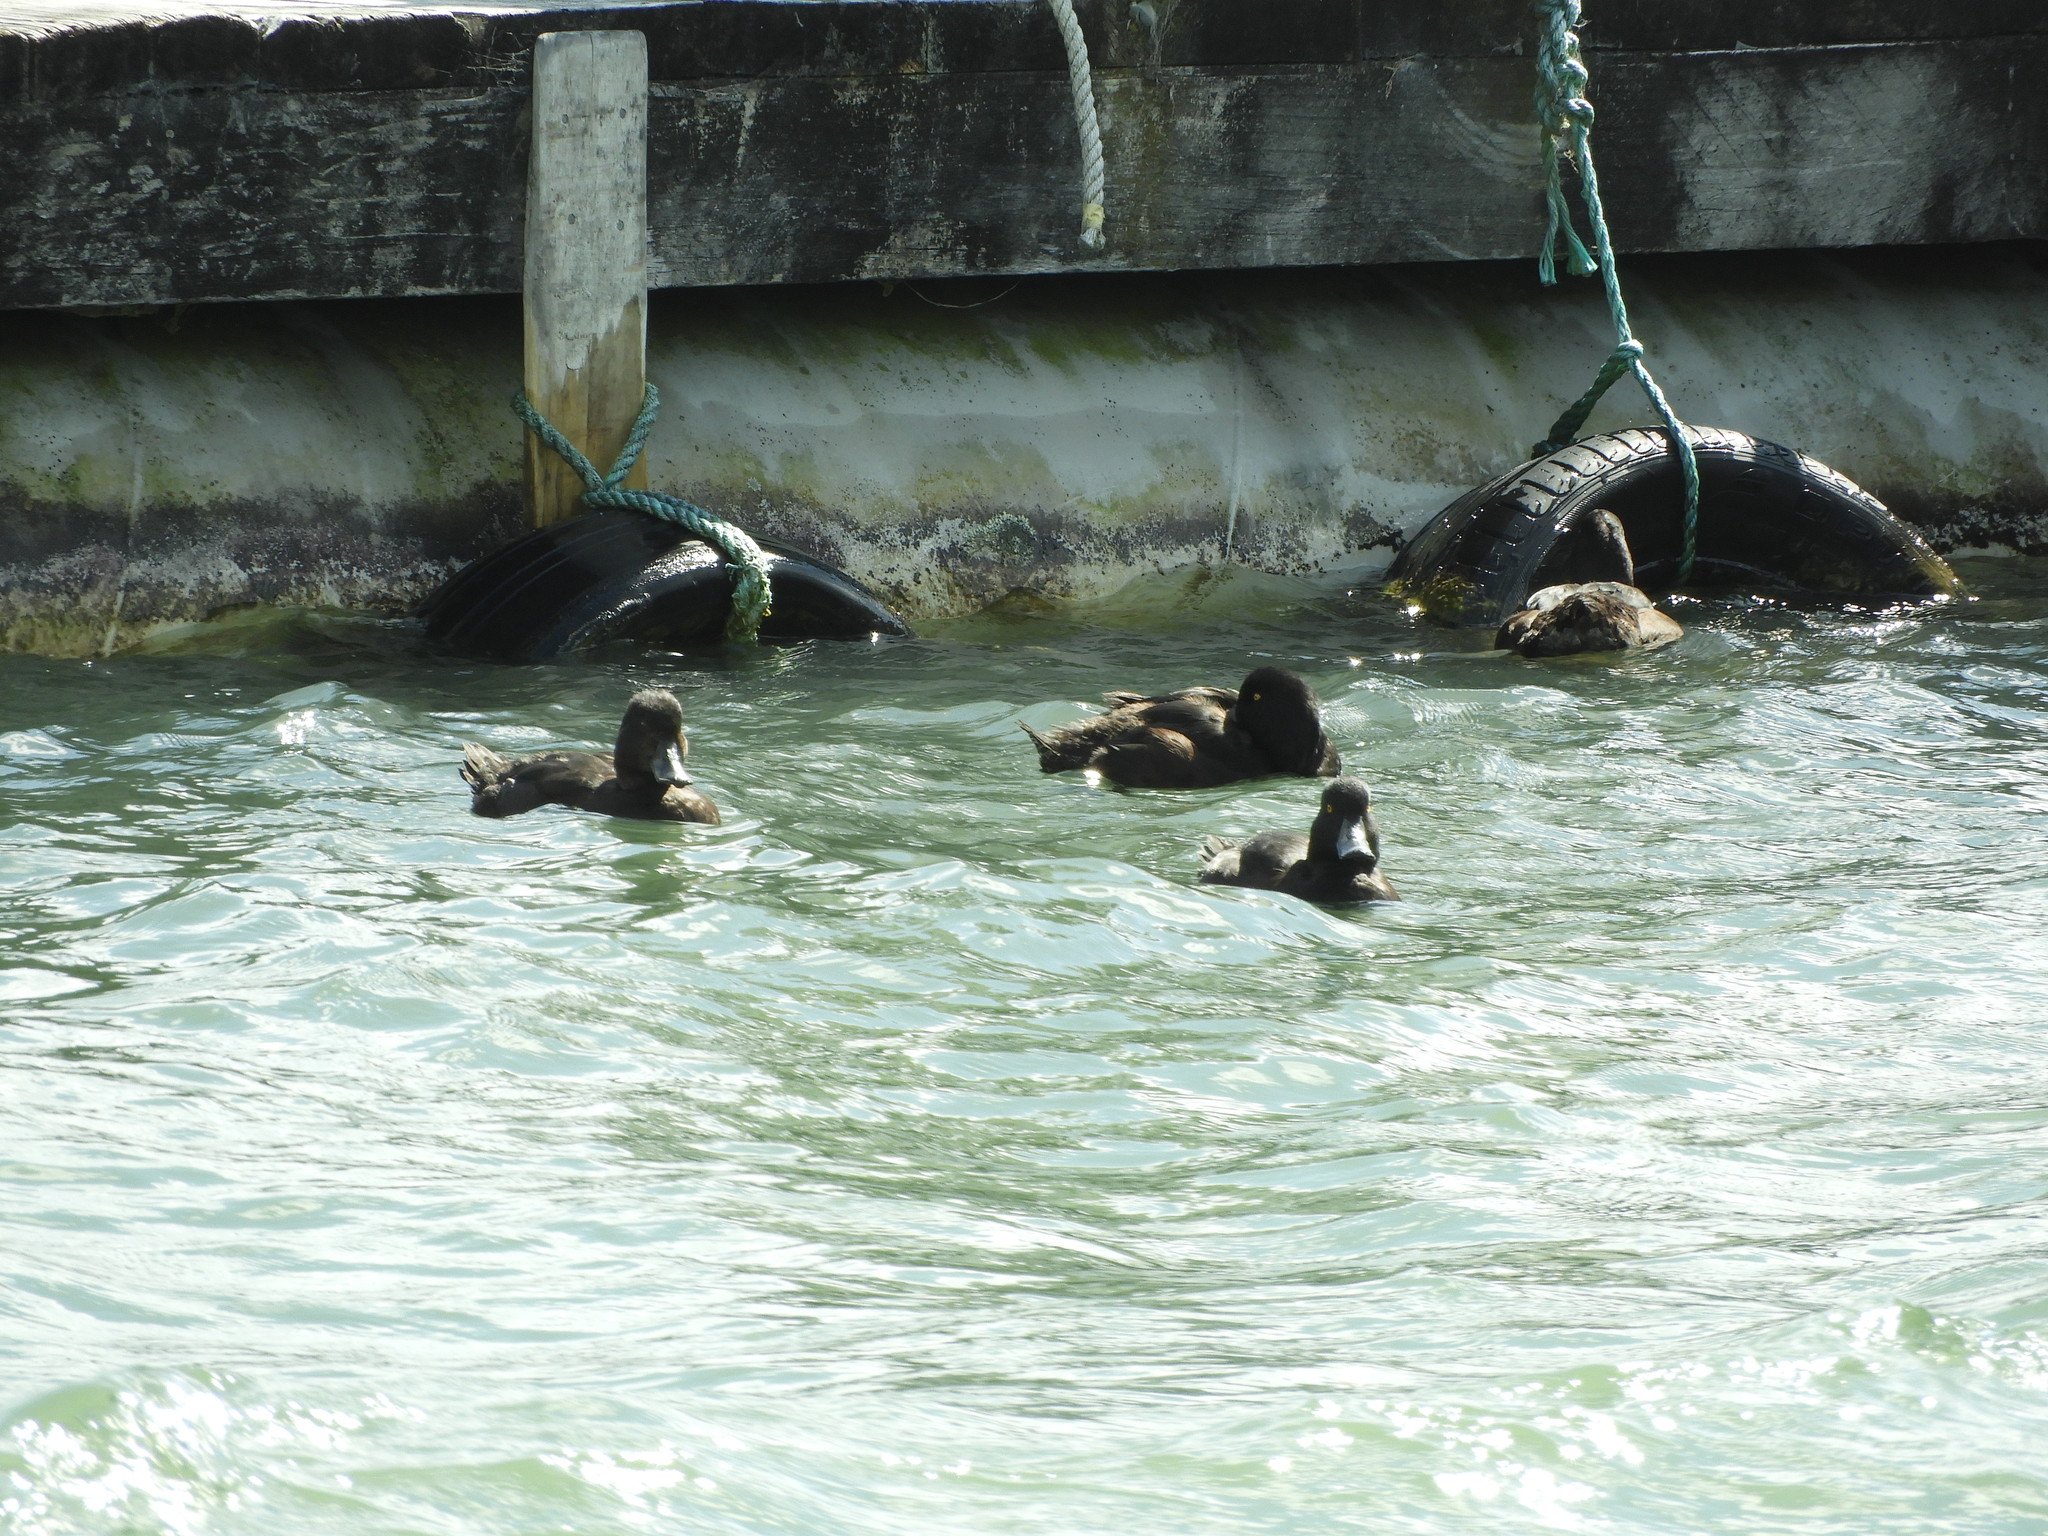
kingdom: Animalia
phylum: Chordata
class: Aves
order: Anseriformes
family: Anatidae
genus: Aythya
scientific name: Aythya novaeseelandiae
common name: New zealand scaup
